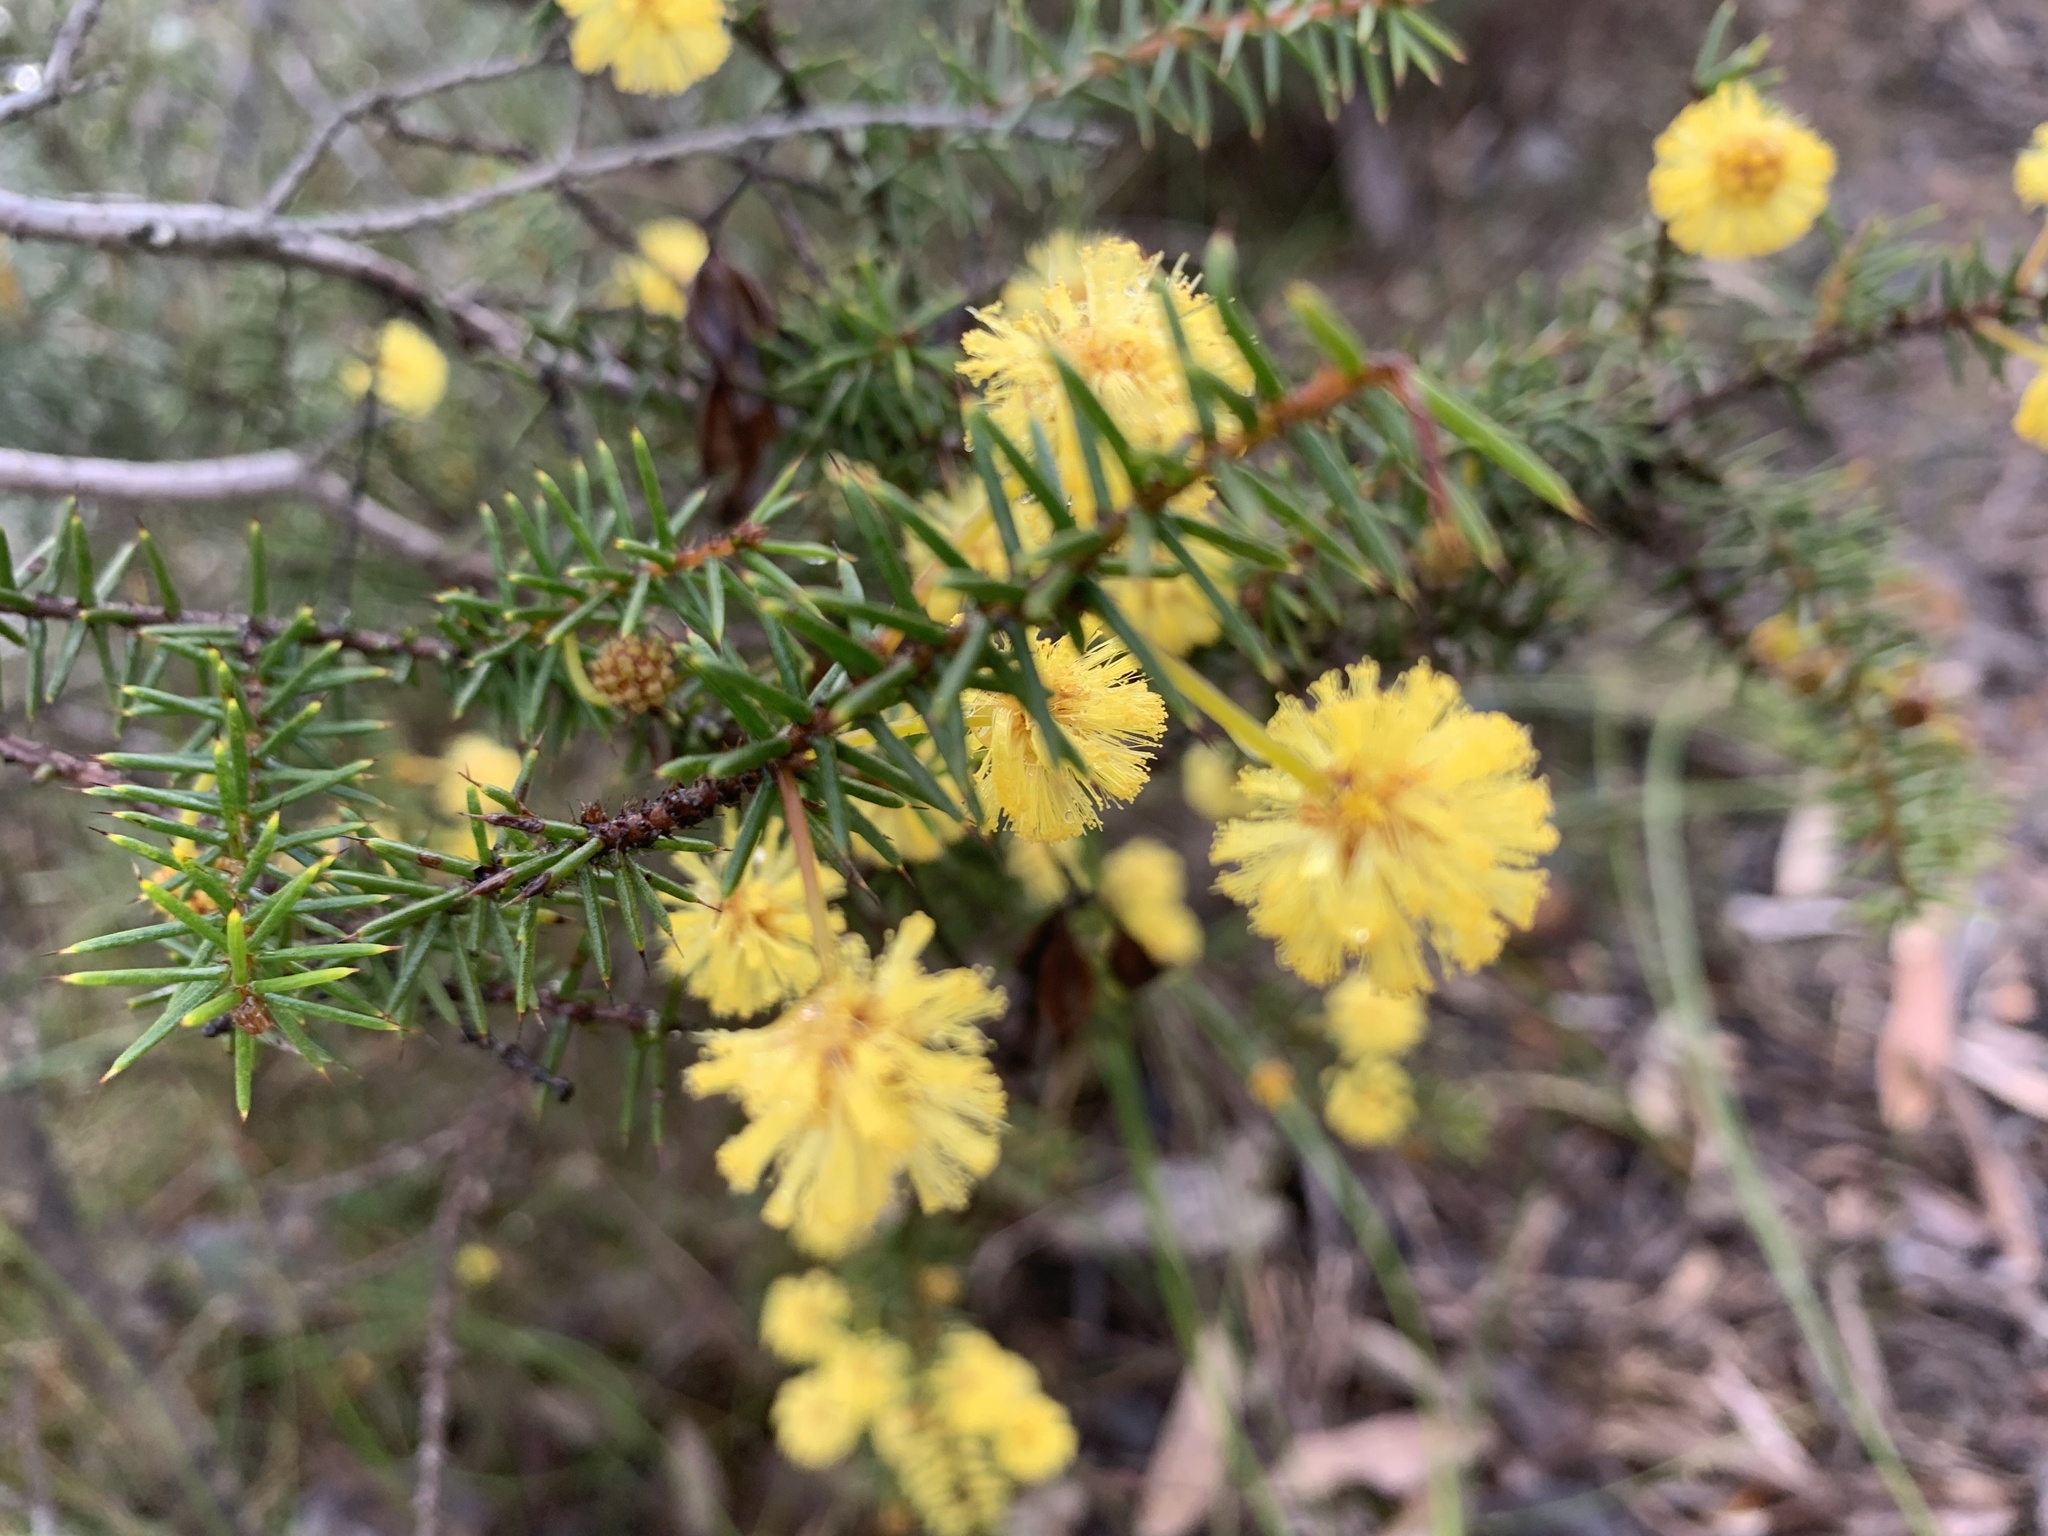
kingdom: Plantae
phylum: Tracheophyta
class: Magnoliopsida
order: Fabales
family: Fabaceae
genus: Acacia
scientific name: Acacia echinula
